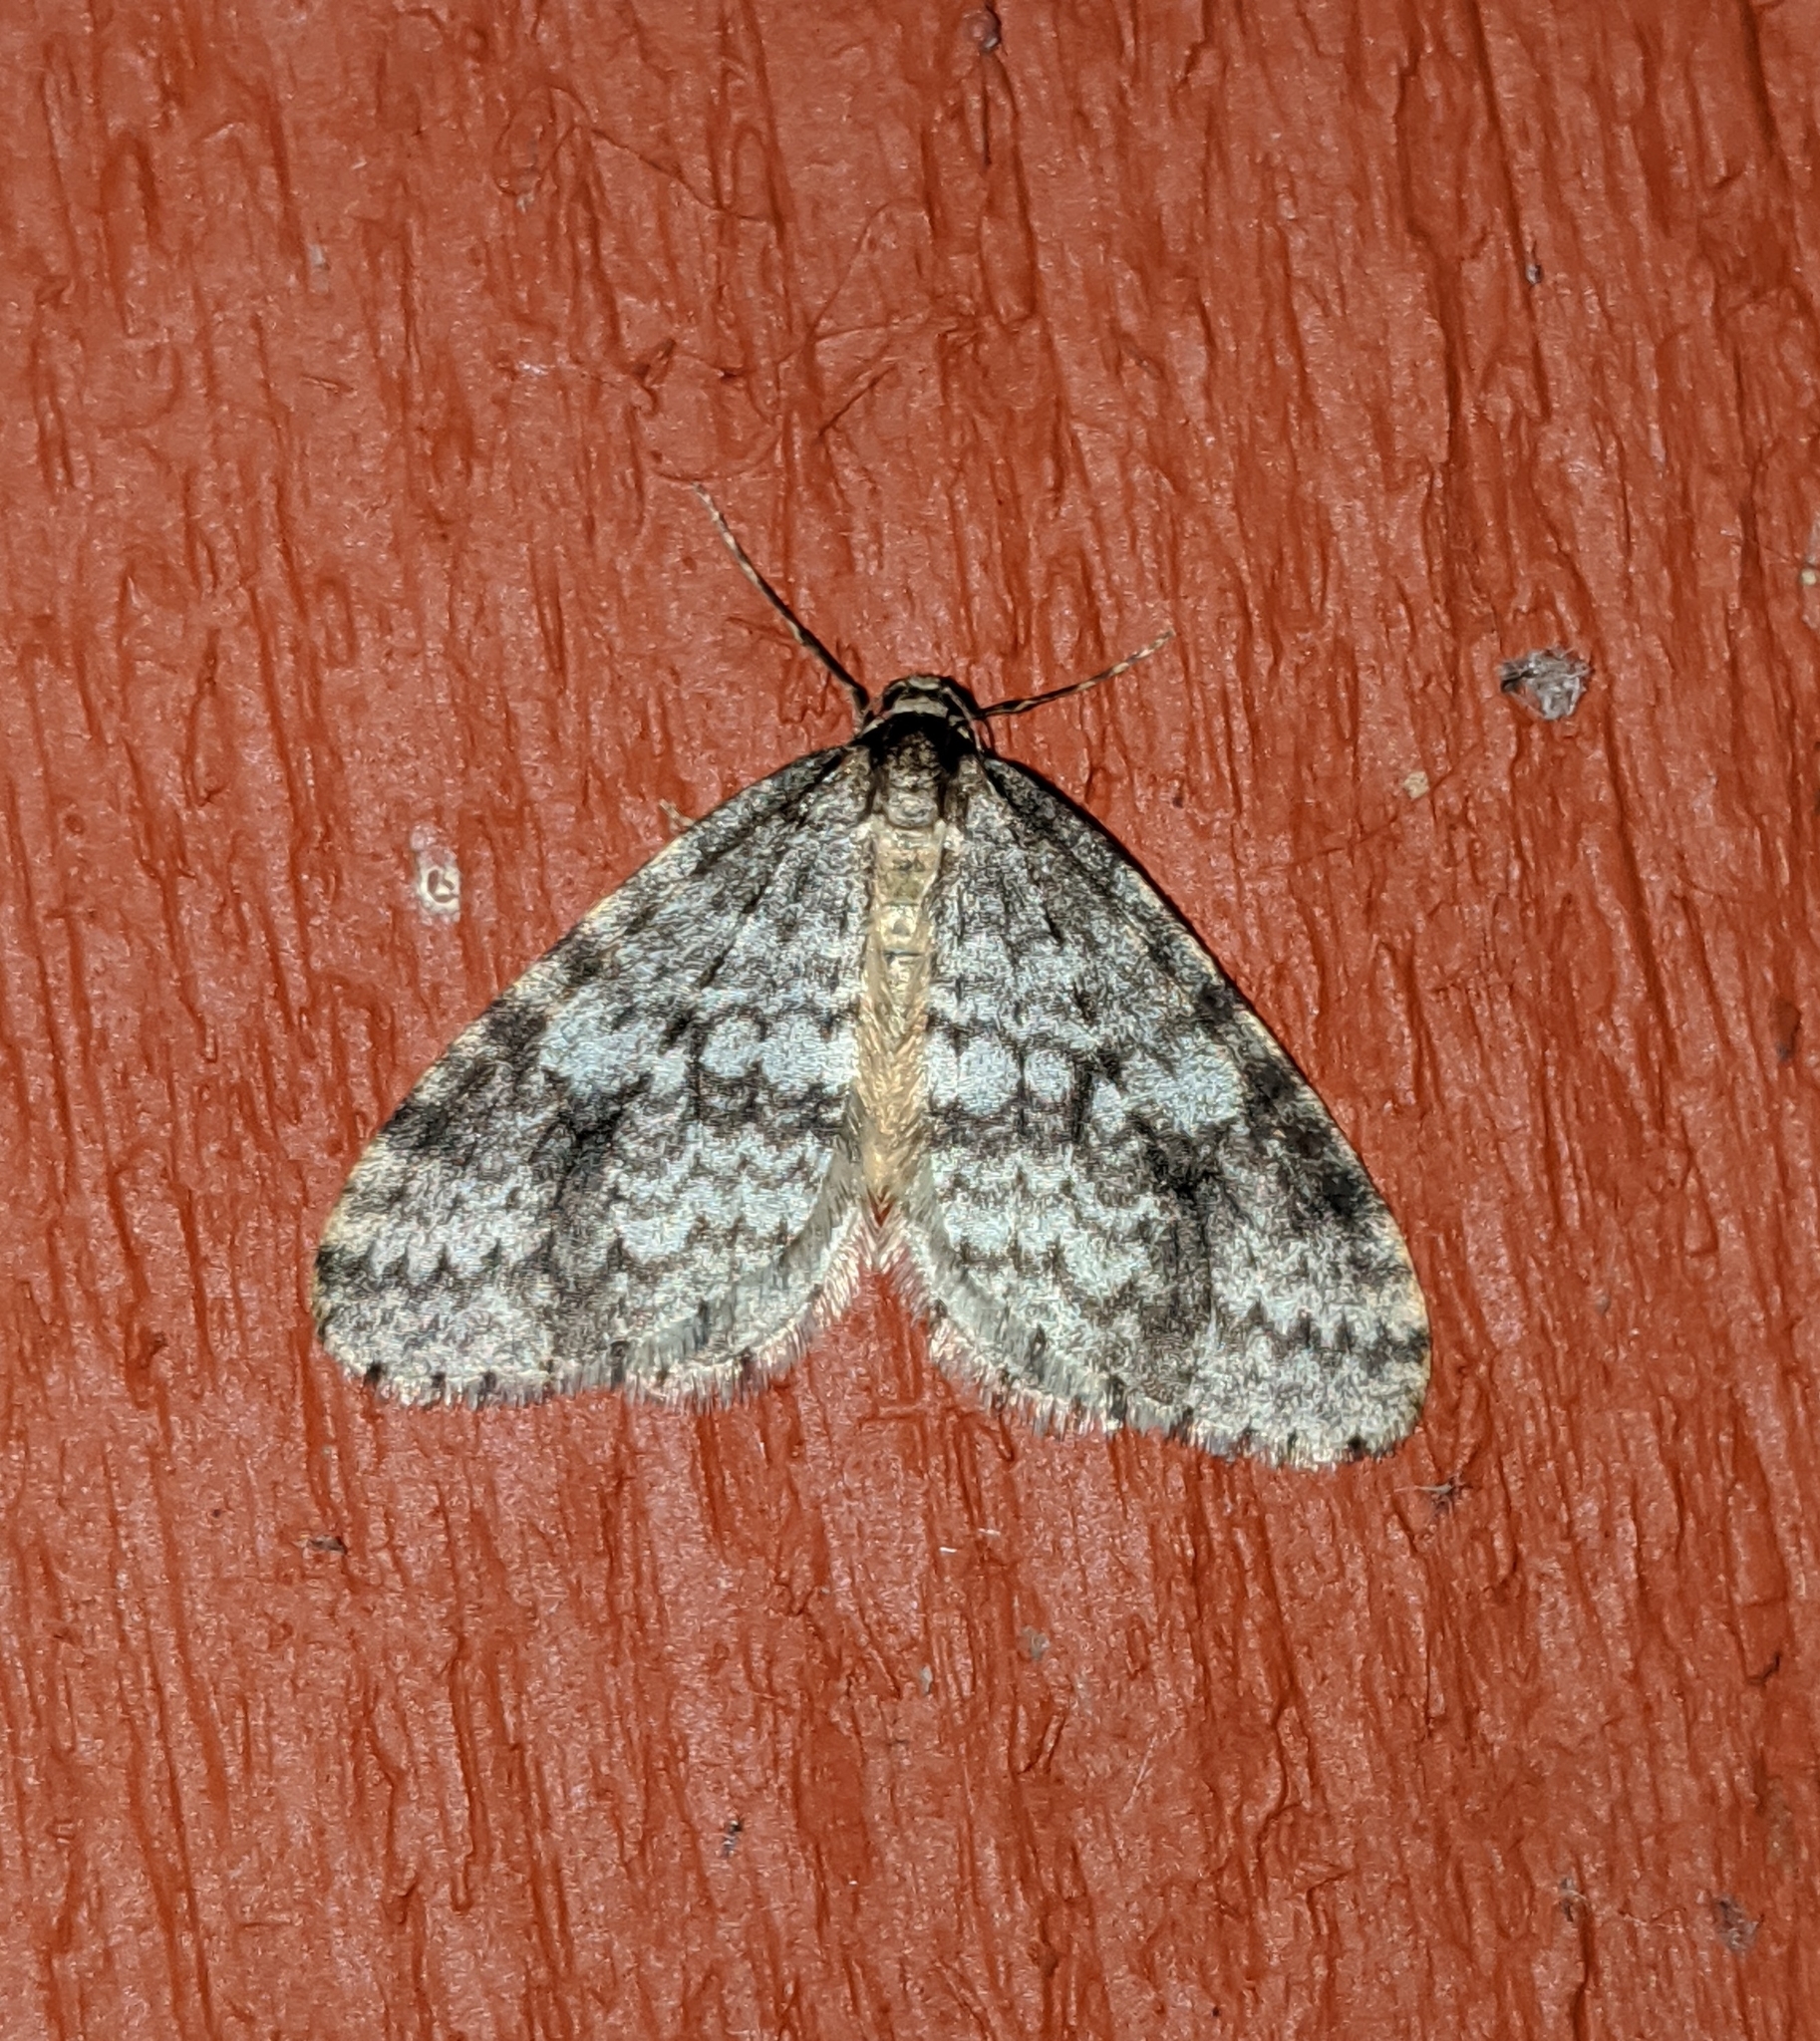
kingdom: Animalia
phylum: Arthropoda
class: Insecta
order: Lepidoptera
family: Geometridae
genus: Operophtera
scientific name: Operophtera occidentalis
